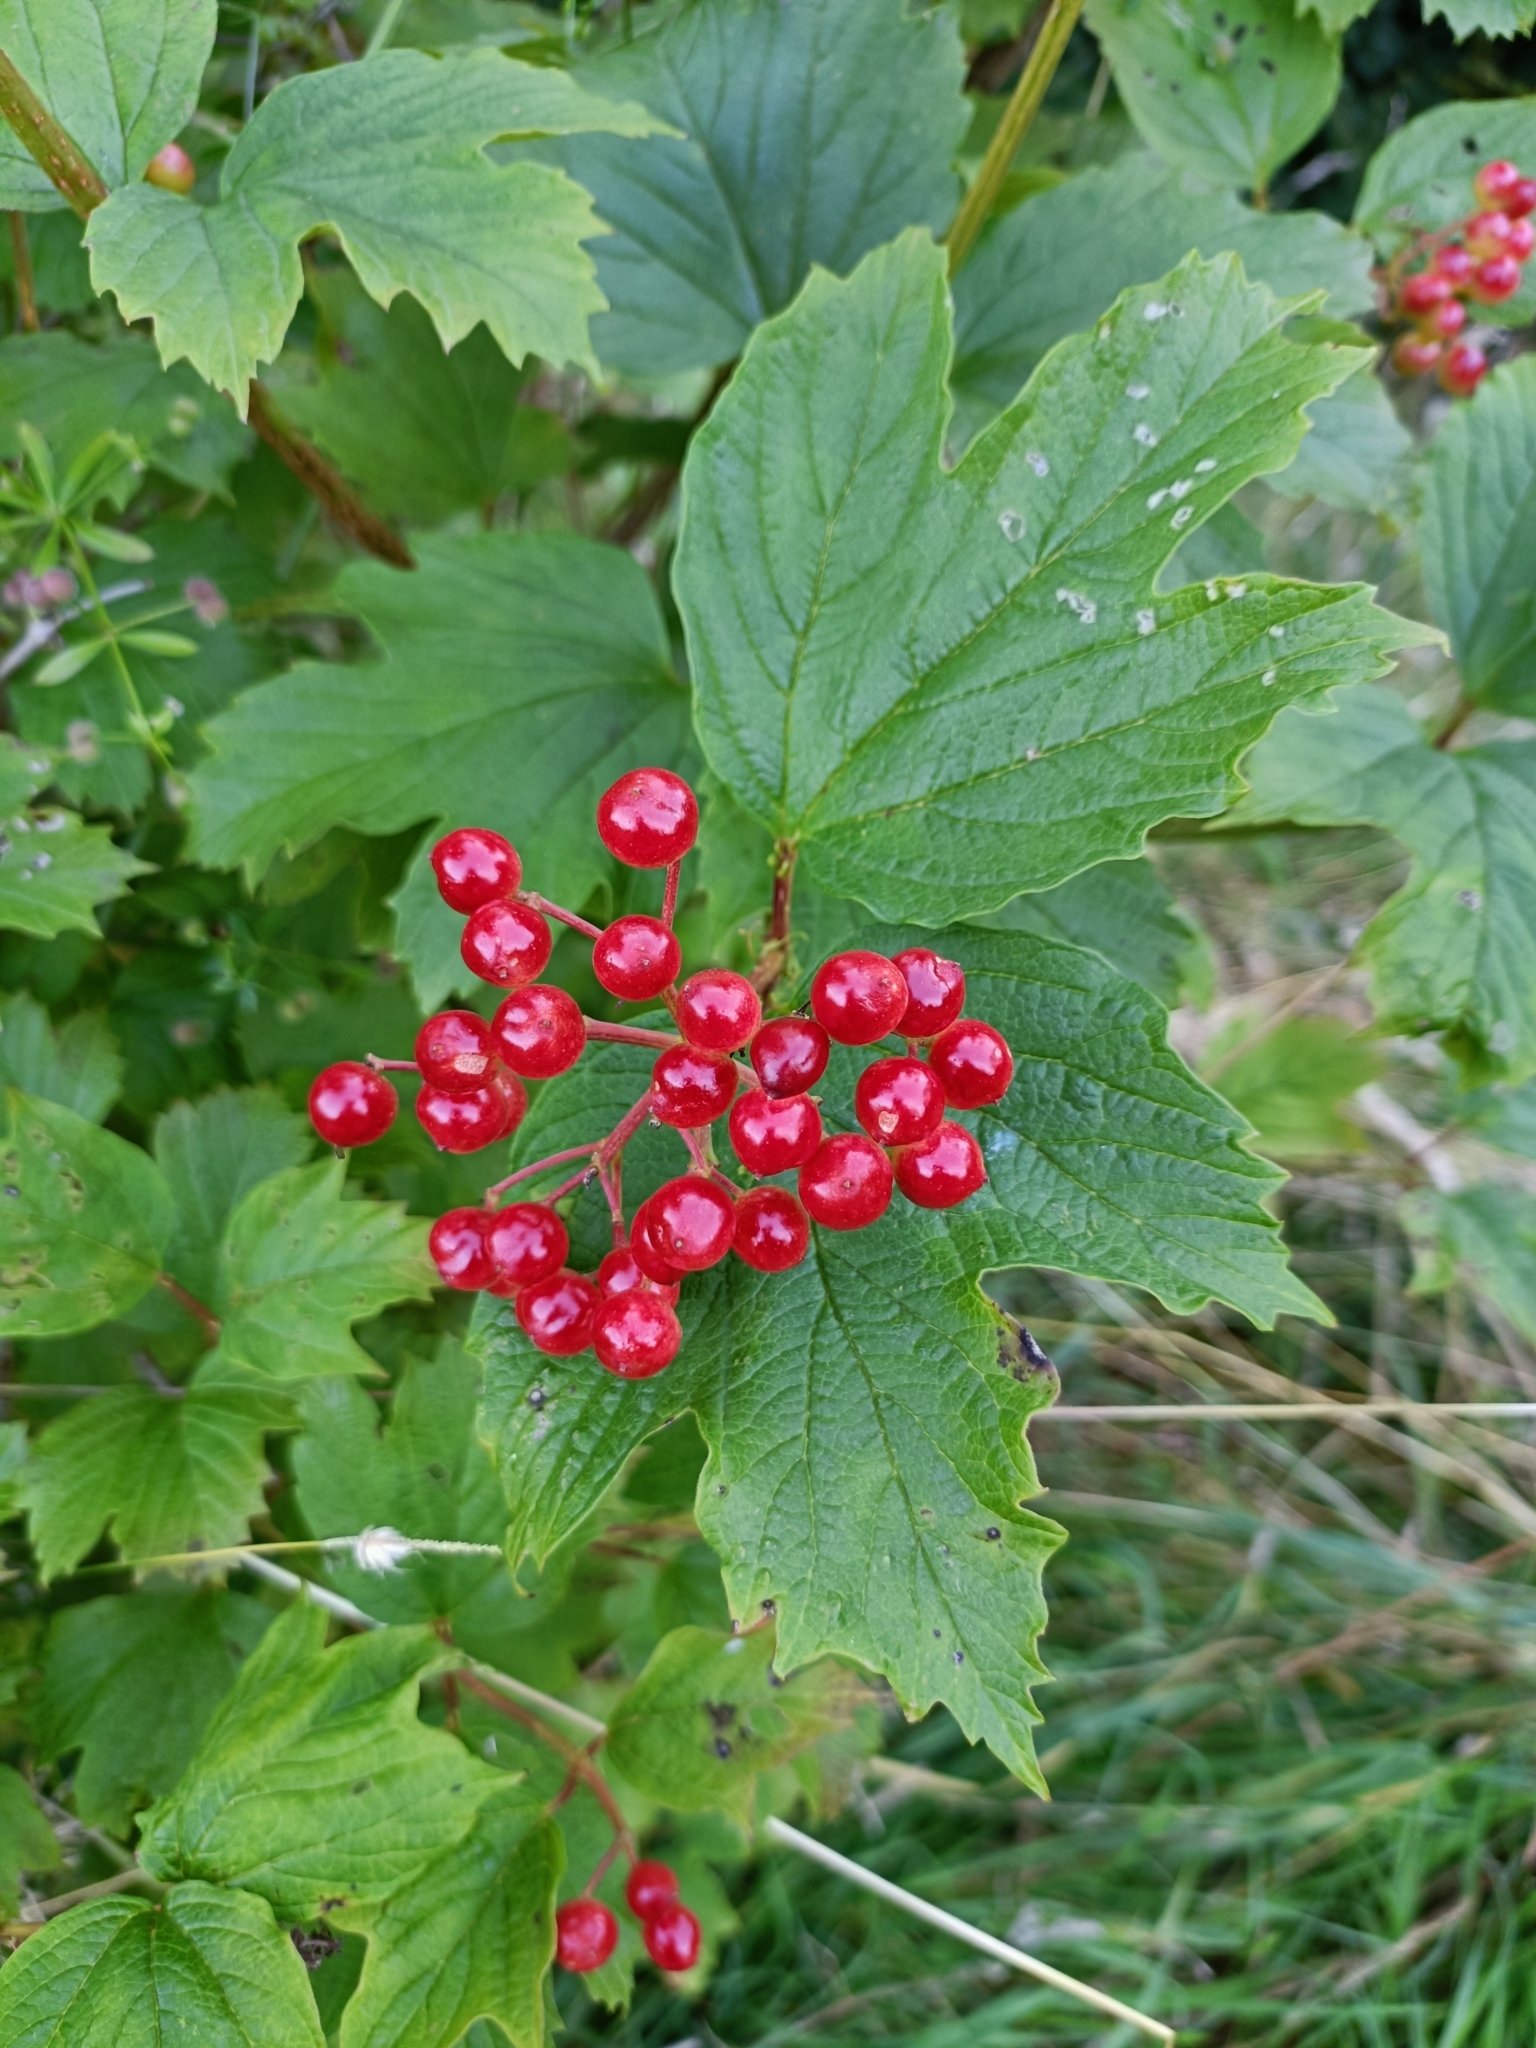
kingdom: Plantae
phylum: Tracheophyta
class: Magnoliopsida
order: Dipsacales
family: Viburnaceae
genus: Viburnum
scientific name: Viburnum opulus
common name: Guelder-rose
